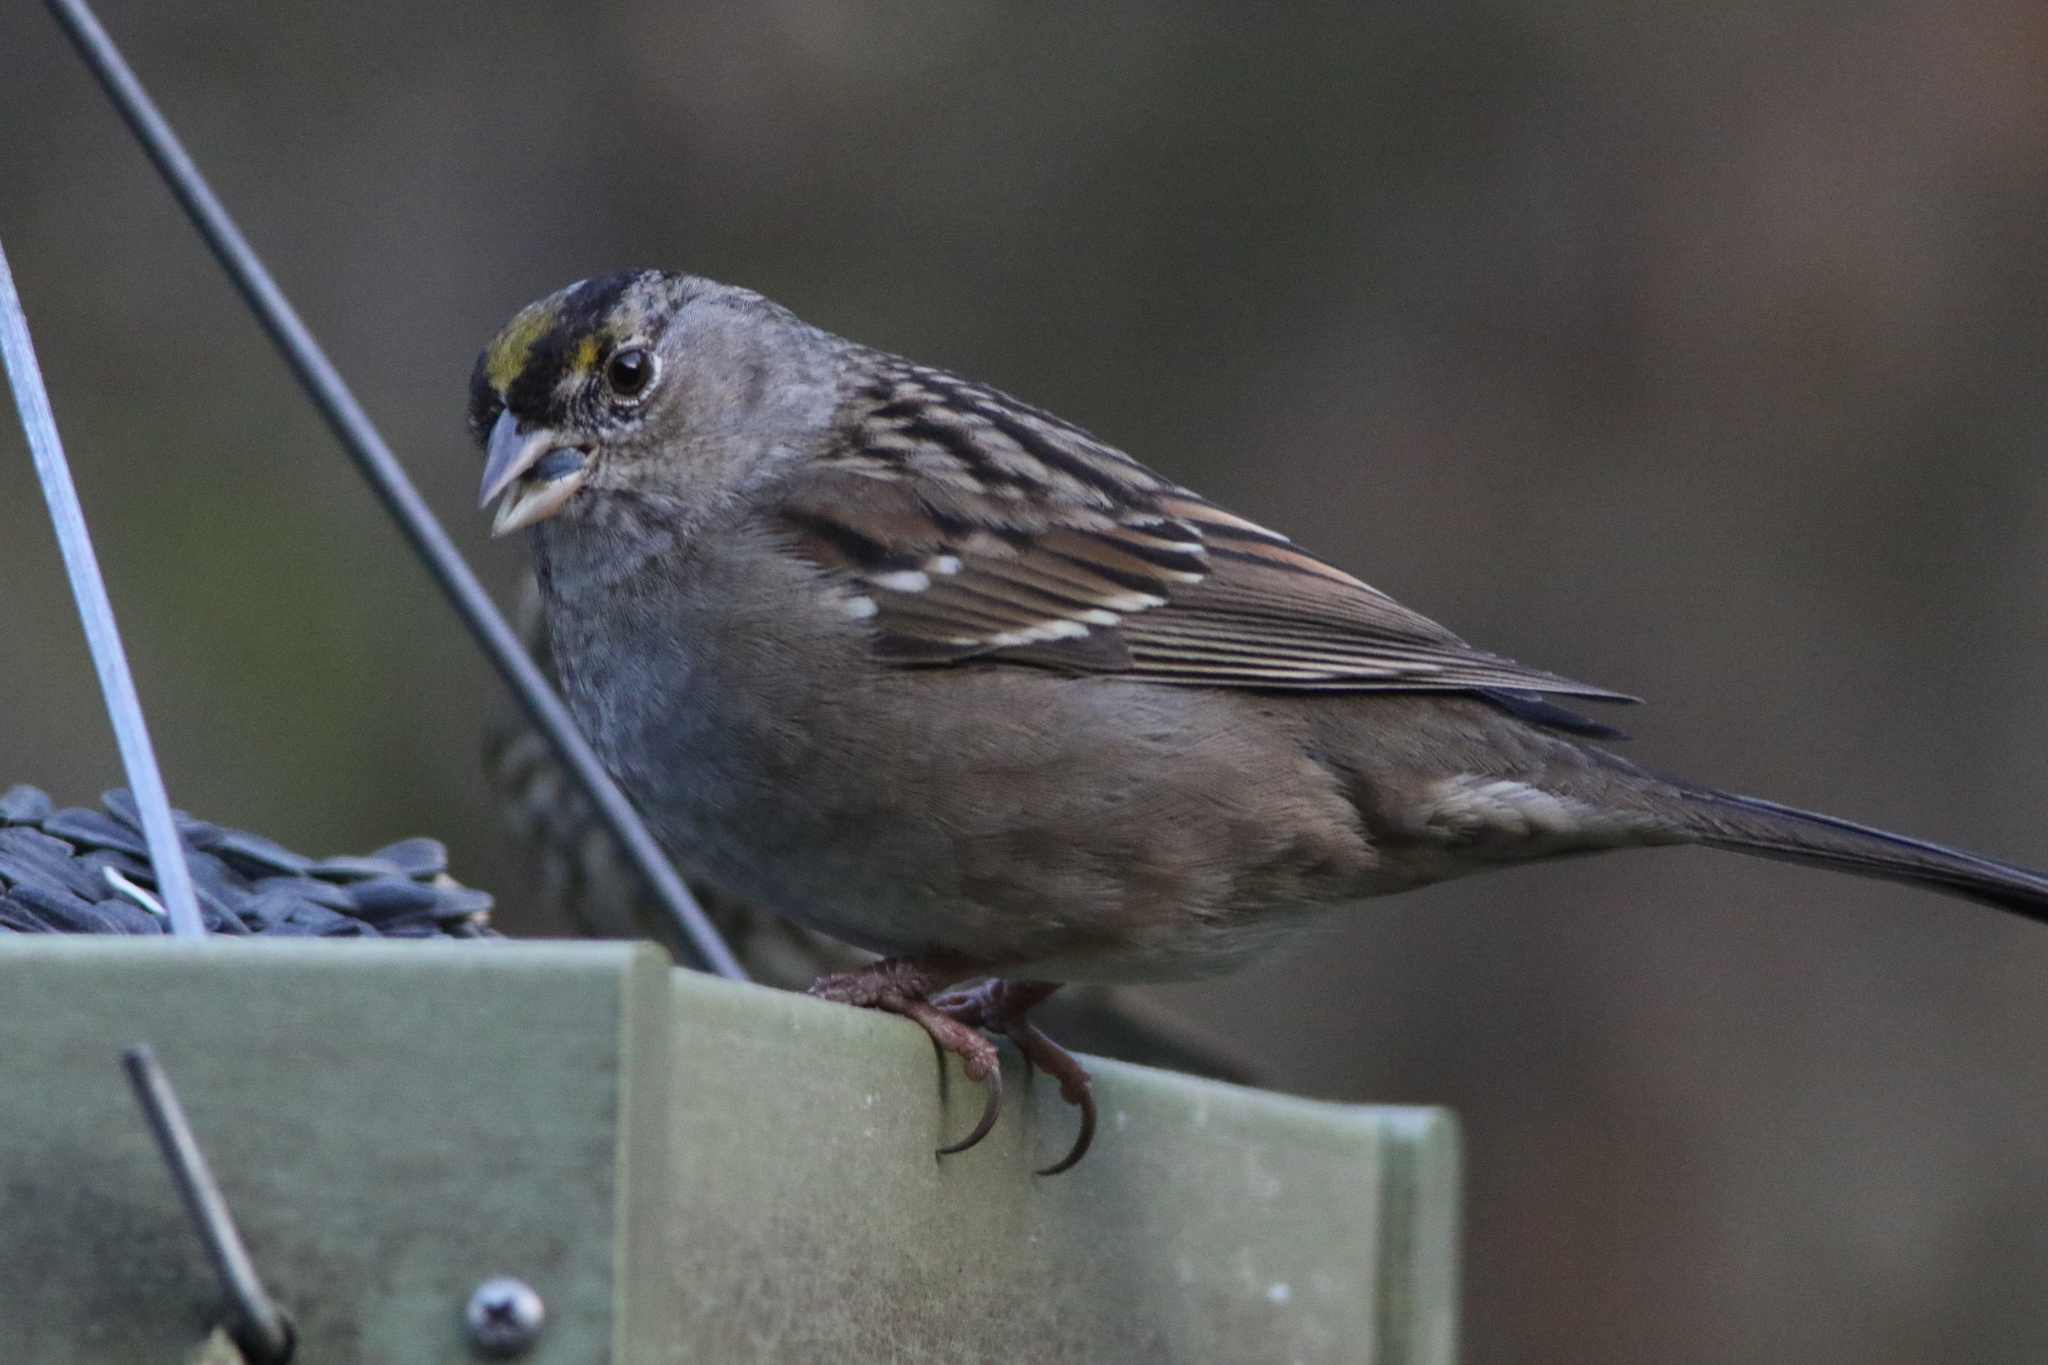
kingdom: Animalia
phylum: Chordata
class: Aves
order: Passeriformes
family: Passerellidae
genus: Zonotrichia
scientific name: Zonotrichia atricapilla
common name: Golden-crowned sparrow
